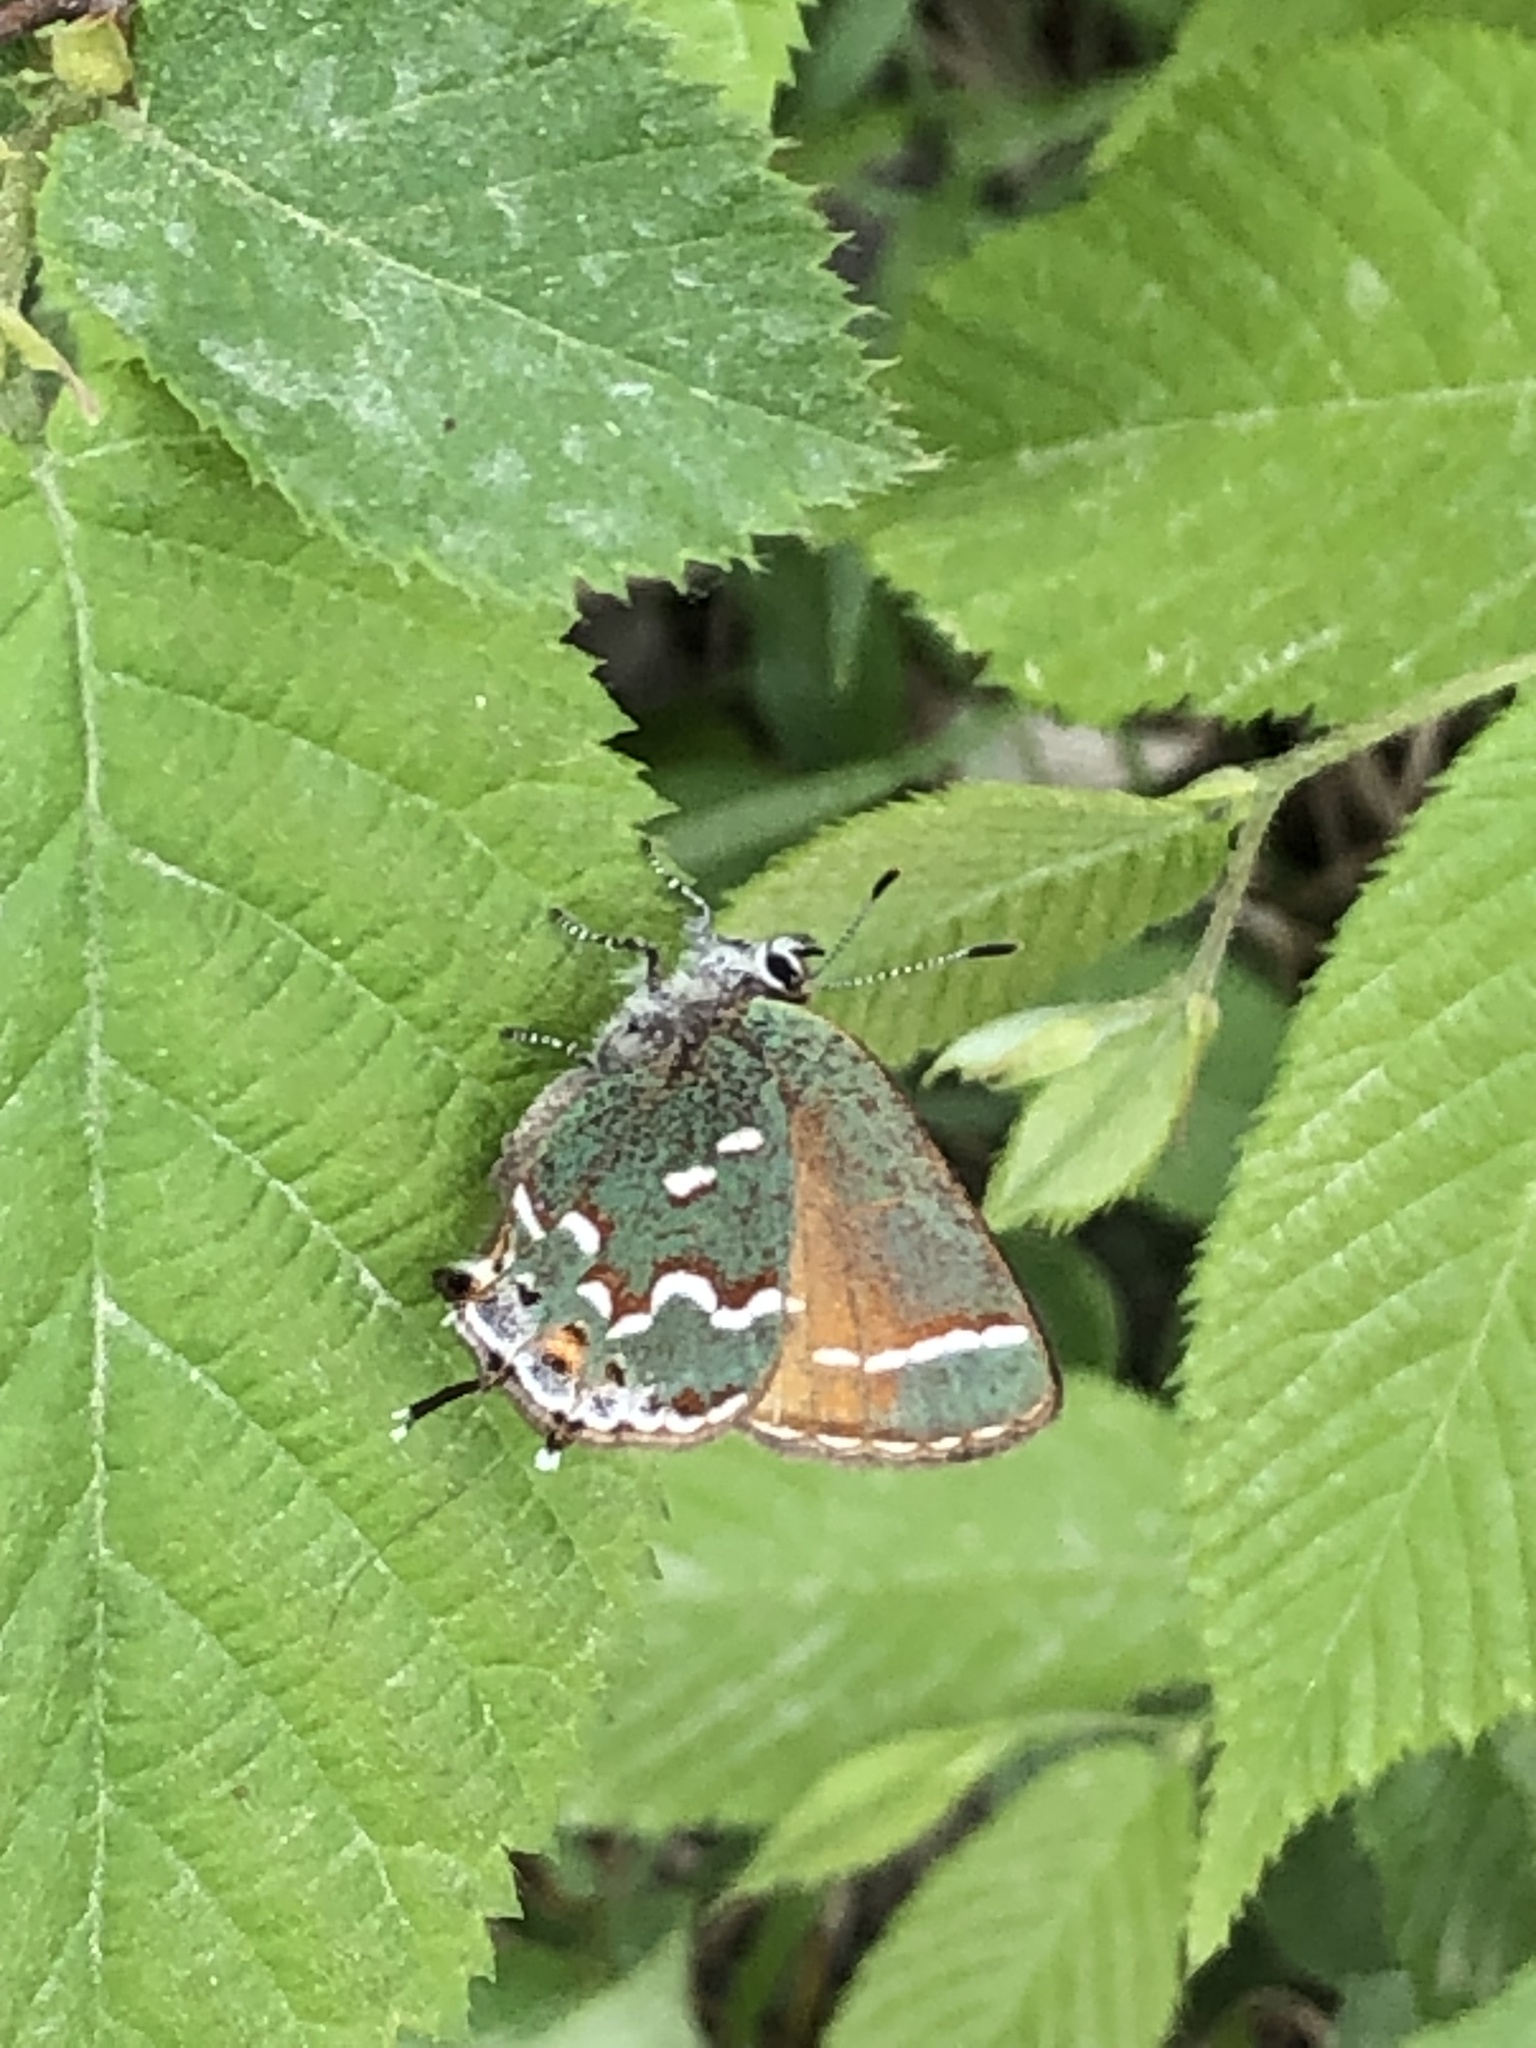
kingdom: Animalia
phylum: Arthropoda
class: Insecta
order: Lepidoptera
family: Lycaenidae
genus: Mitoura
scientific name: Mitoura gryneus
